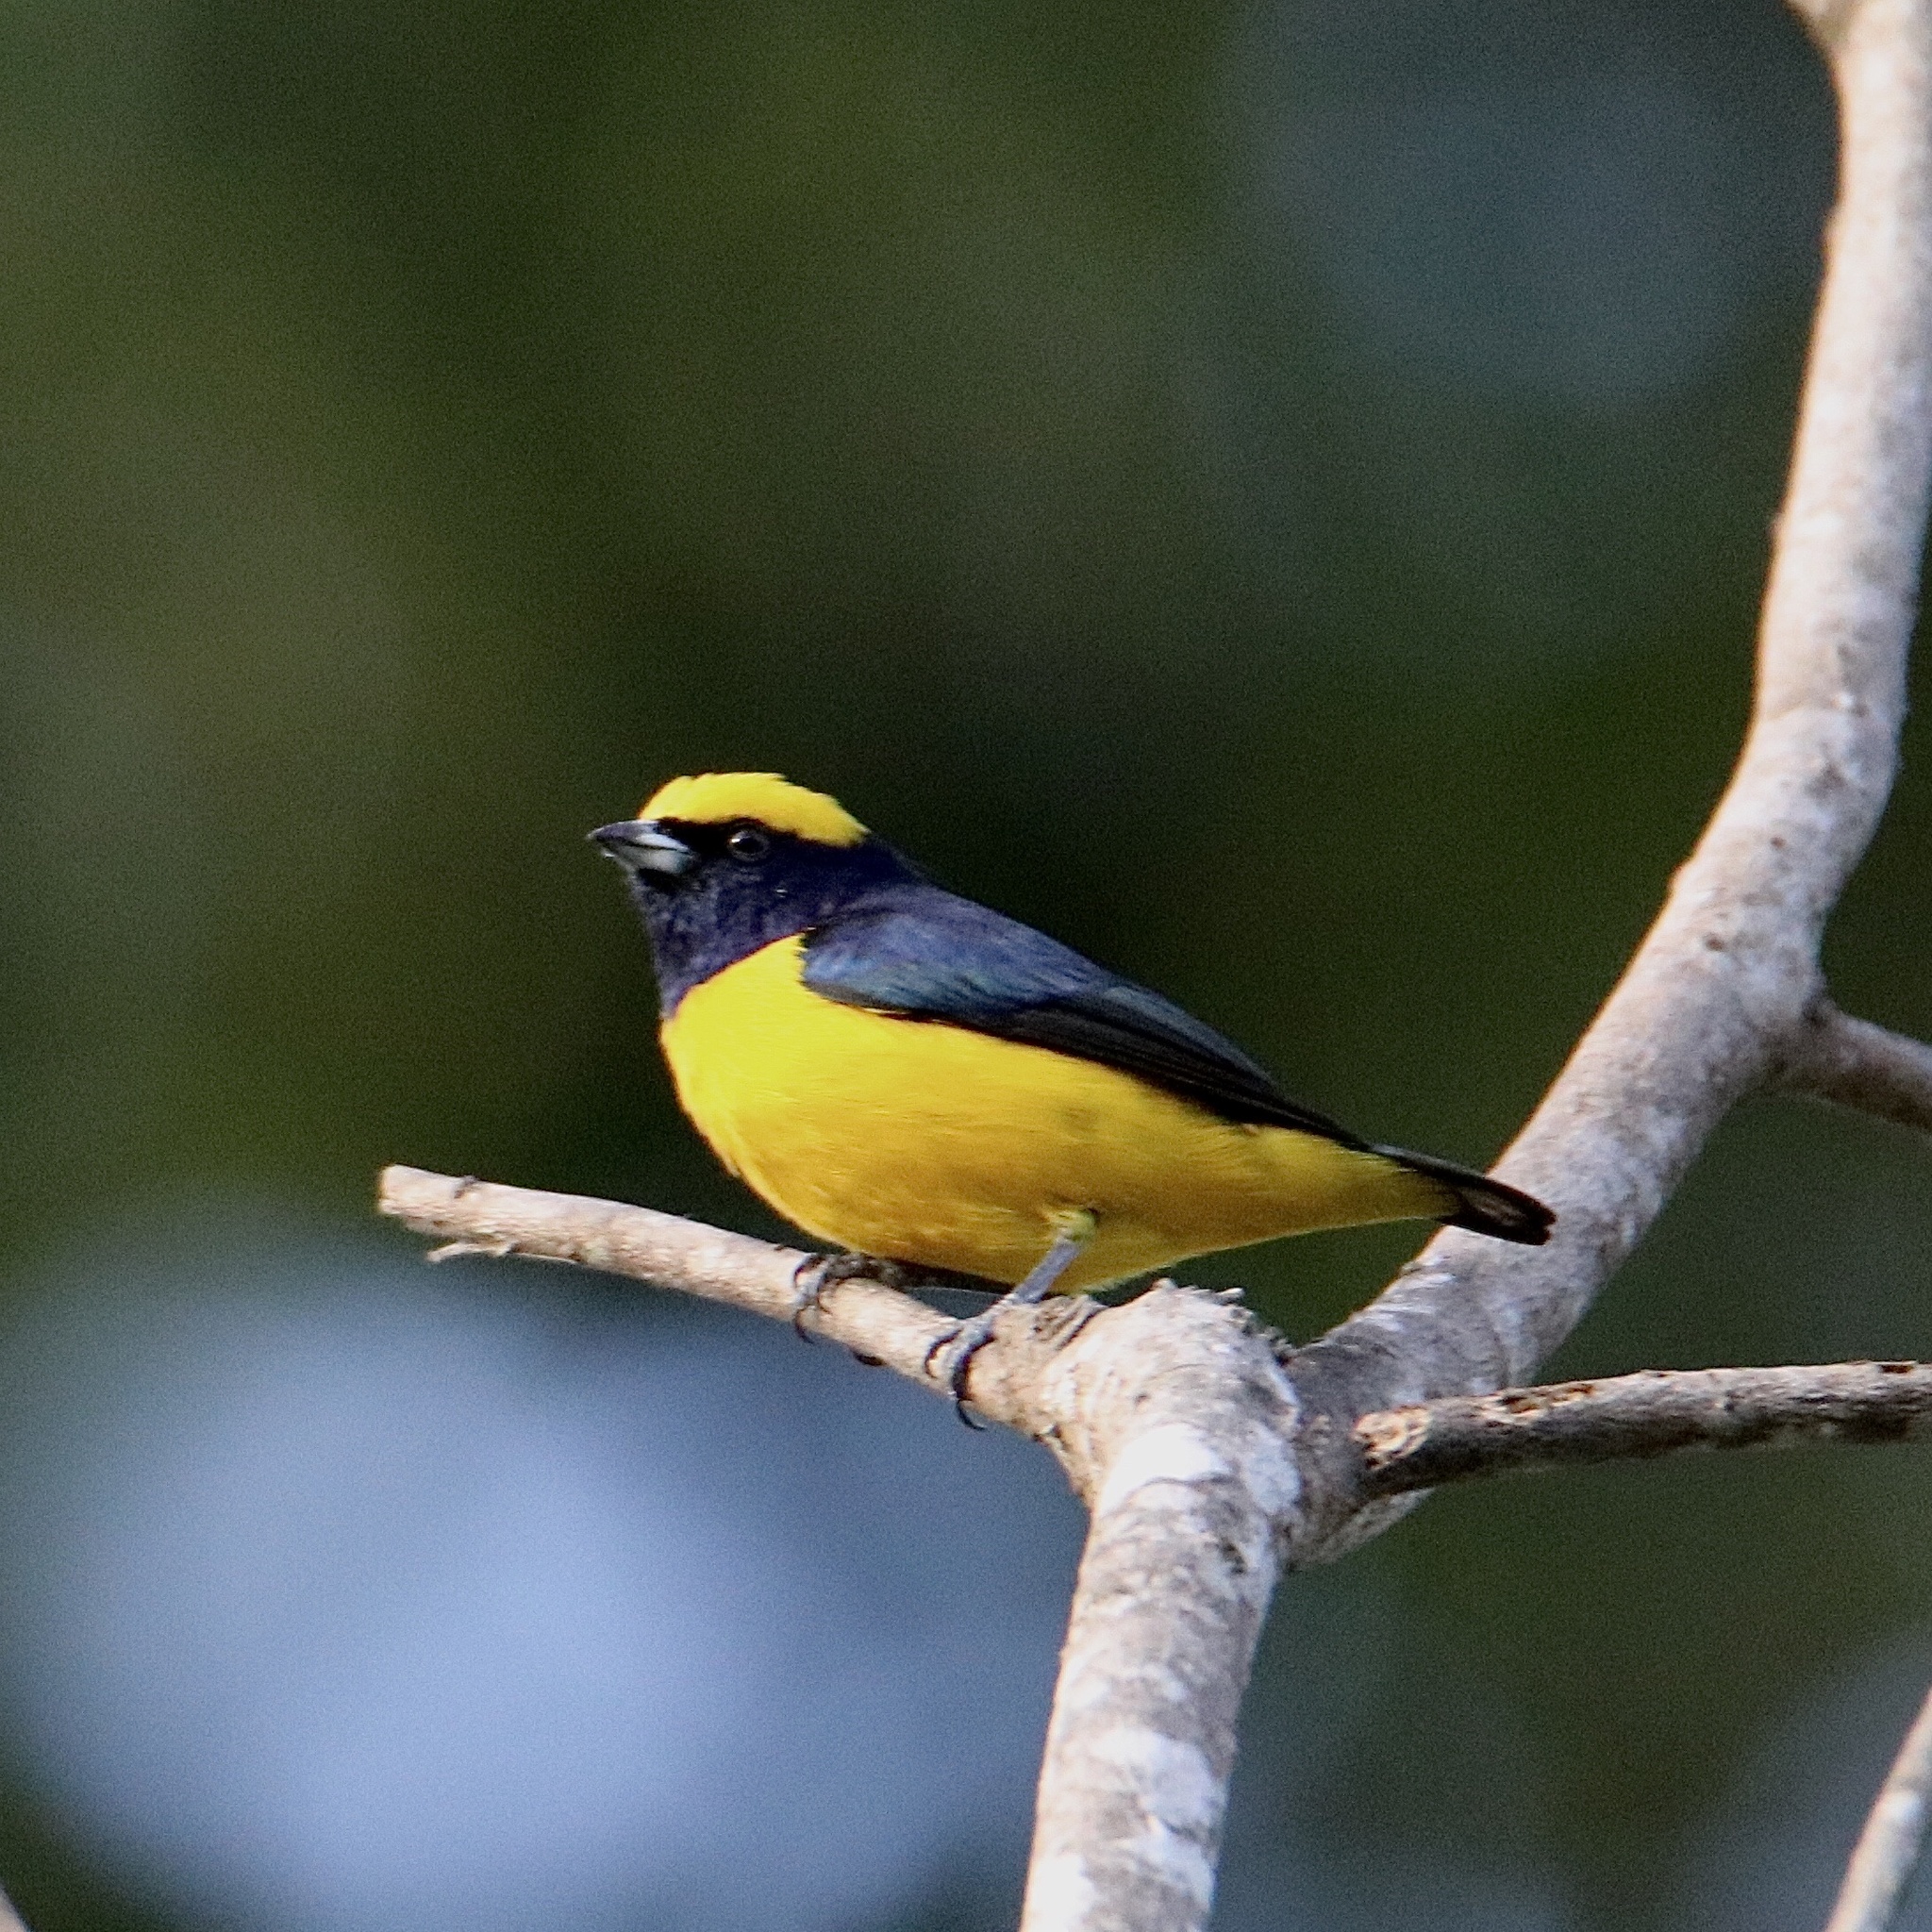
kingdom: Animalia
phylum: Chordata
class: Aves
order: Passeriformes
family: Fringillidae
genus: Euphonia
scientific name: Euphonia luteicapilla
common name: Yellow-crowned euphonia
